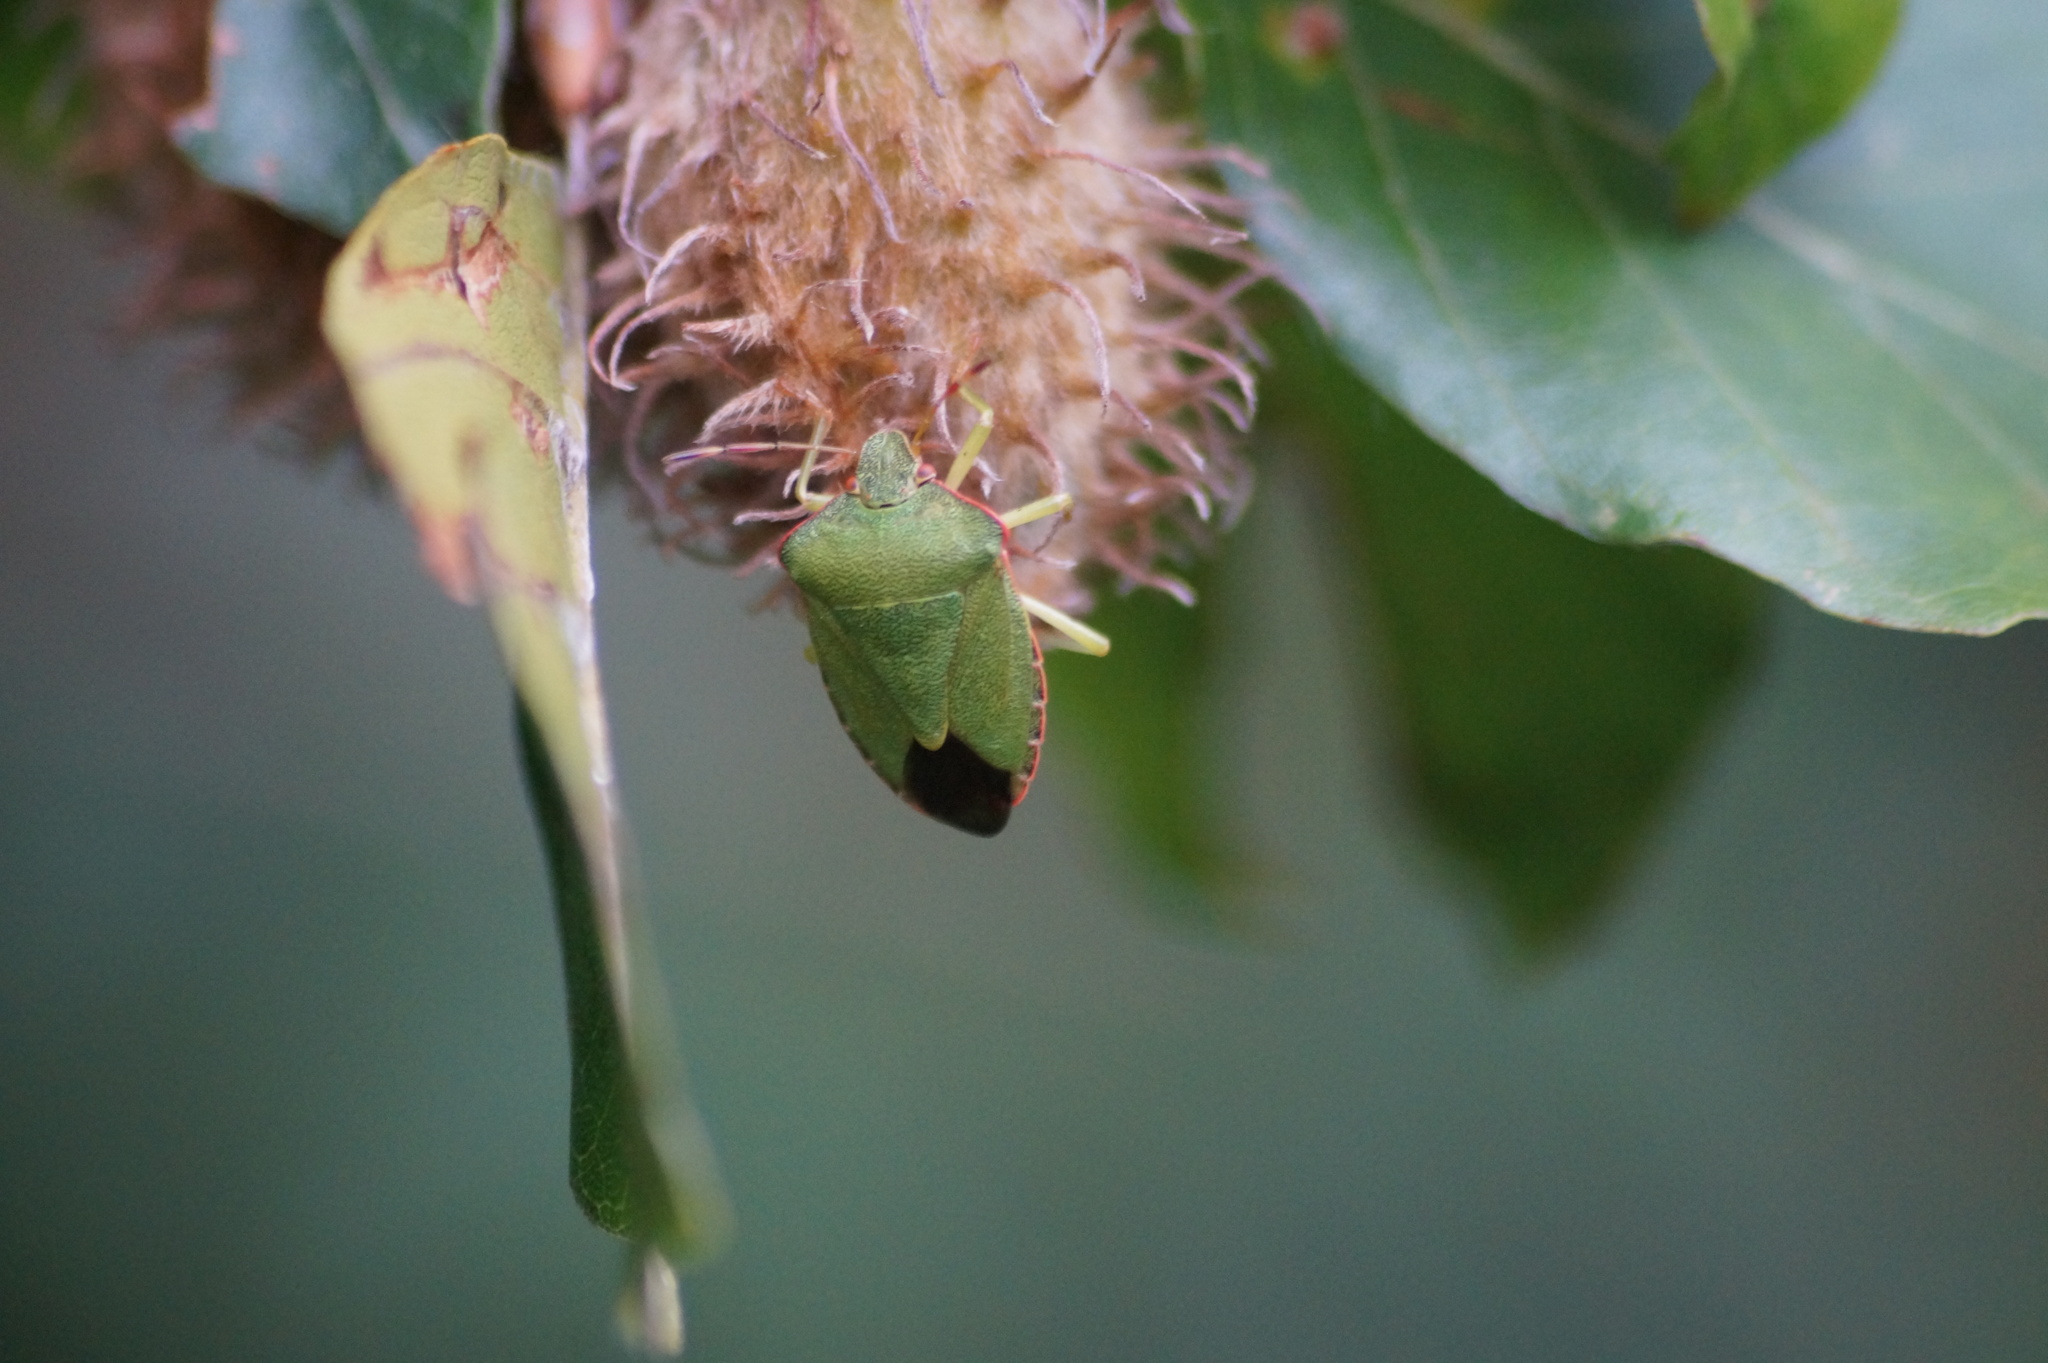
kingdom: Animalia
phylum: Arthropoda
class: Insecta
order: Hemiptera
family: Pentatomidae
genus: Palomena
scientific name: Palomena prasina
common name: Green shieldbug
